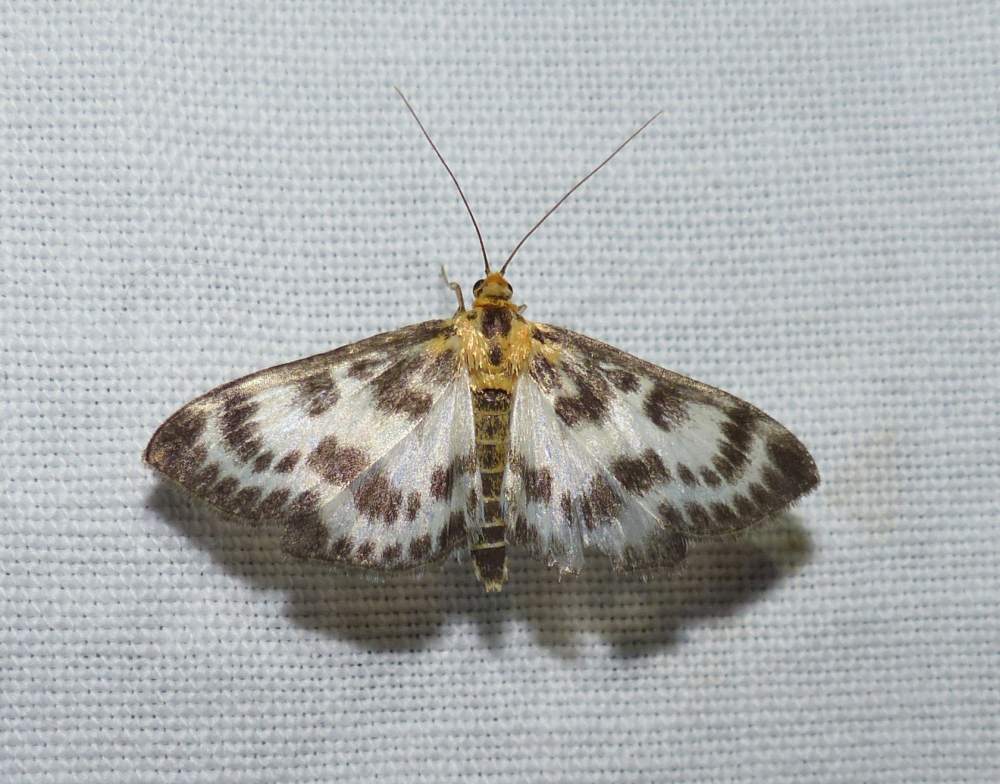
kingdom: Animalia
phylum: Arthropoda
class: Insecta
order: Lepidoptera
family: Crambidae
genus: Anania
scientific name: Anania hortulata
